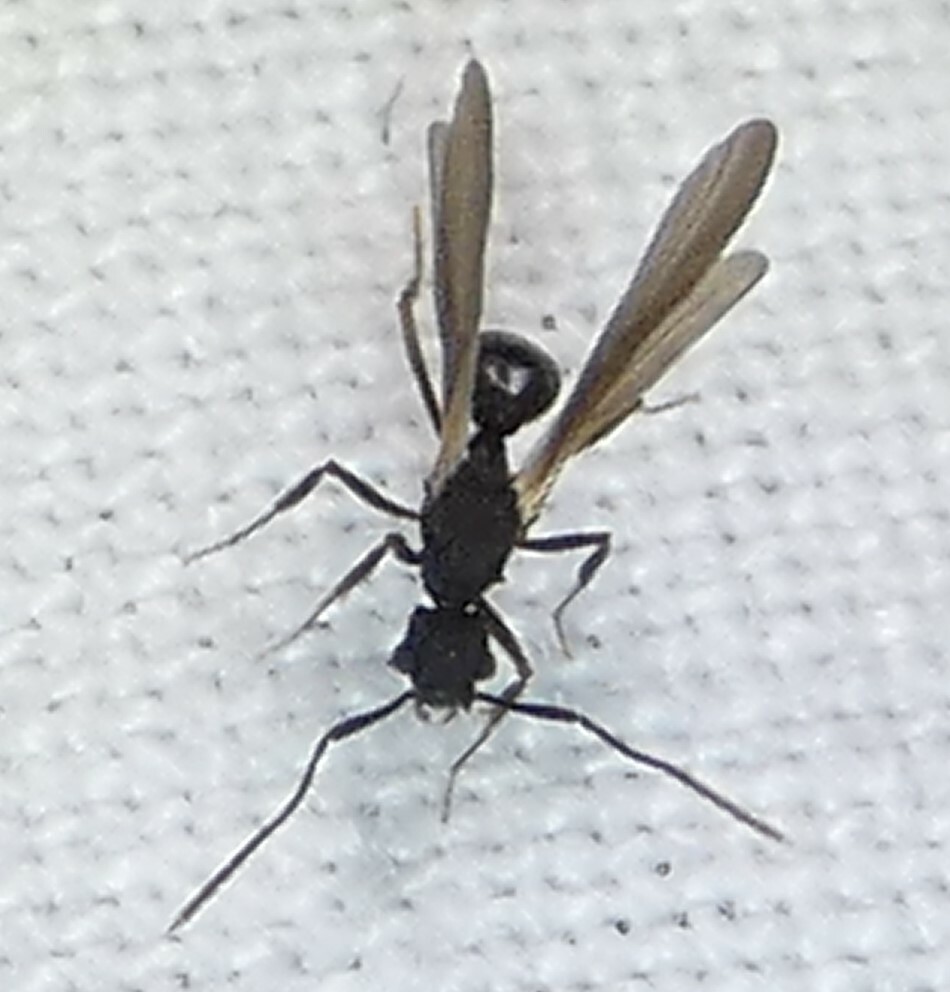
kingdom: Animalia
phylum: Arthropoda
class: Insecta
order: Hymenoptera
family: Formicidae
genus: Cyphomyrmex
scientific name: Cyphomyrmex rimosus
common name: Rimose fungus ant
